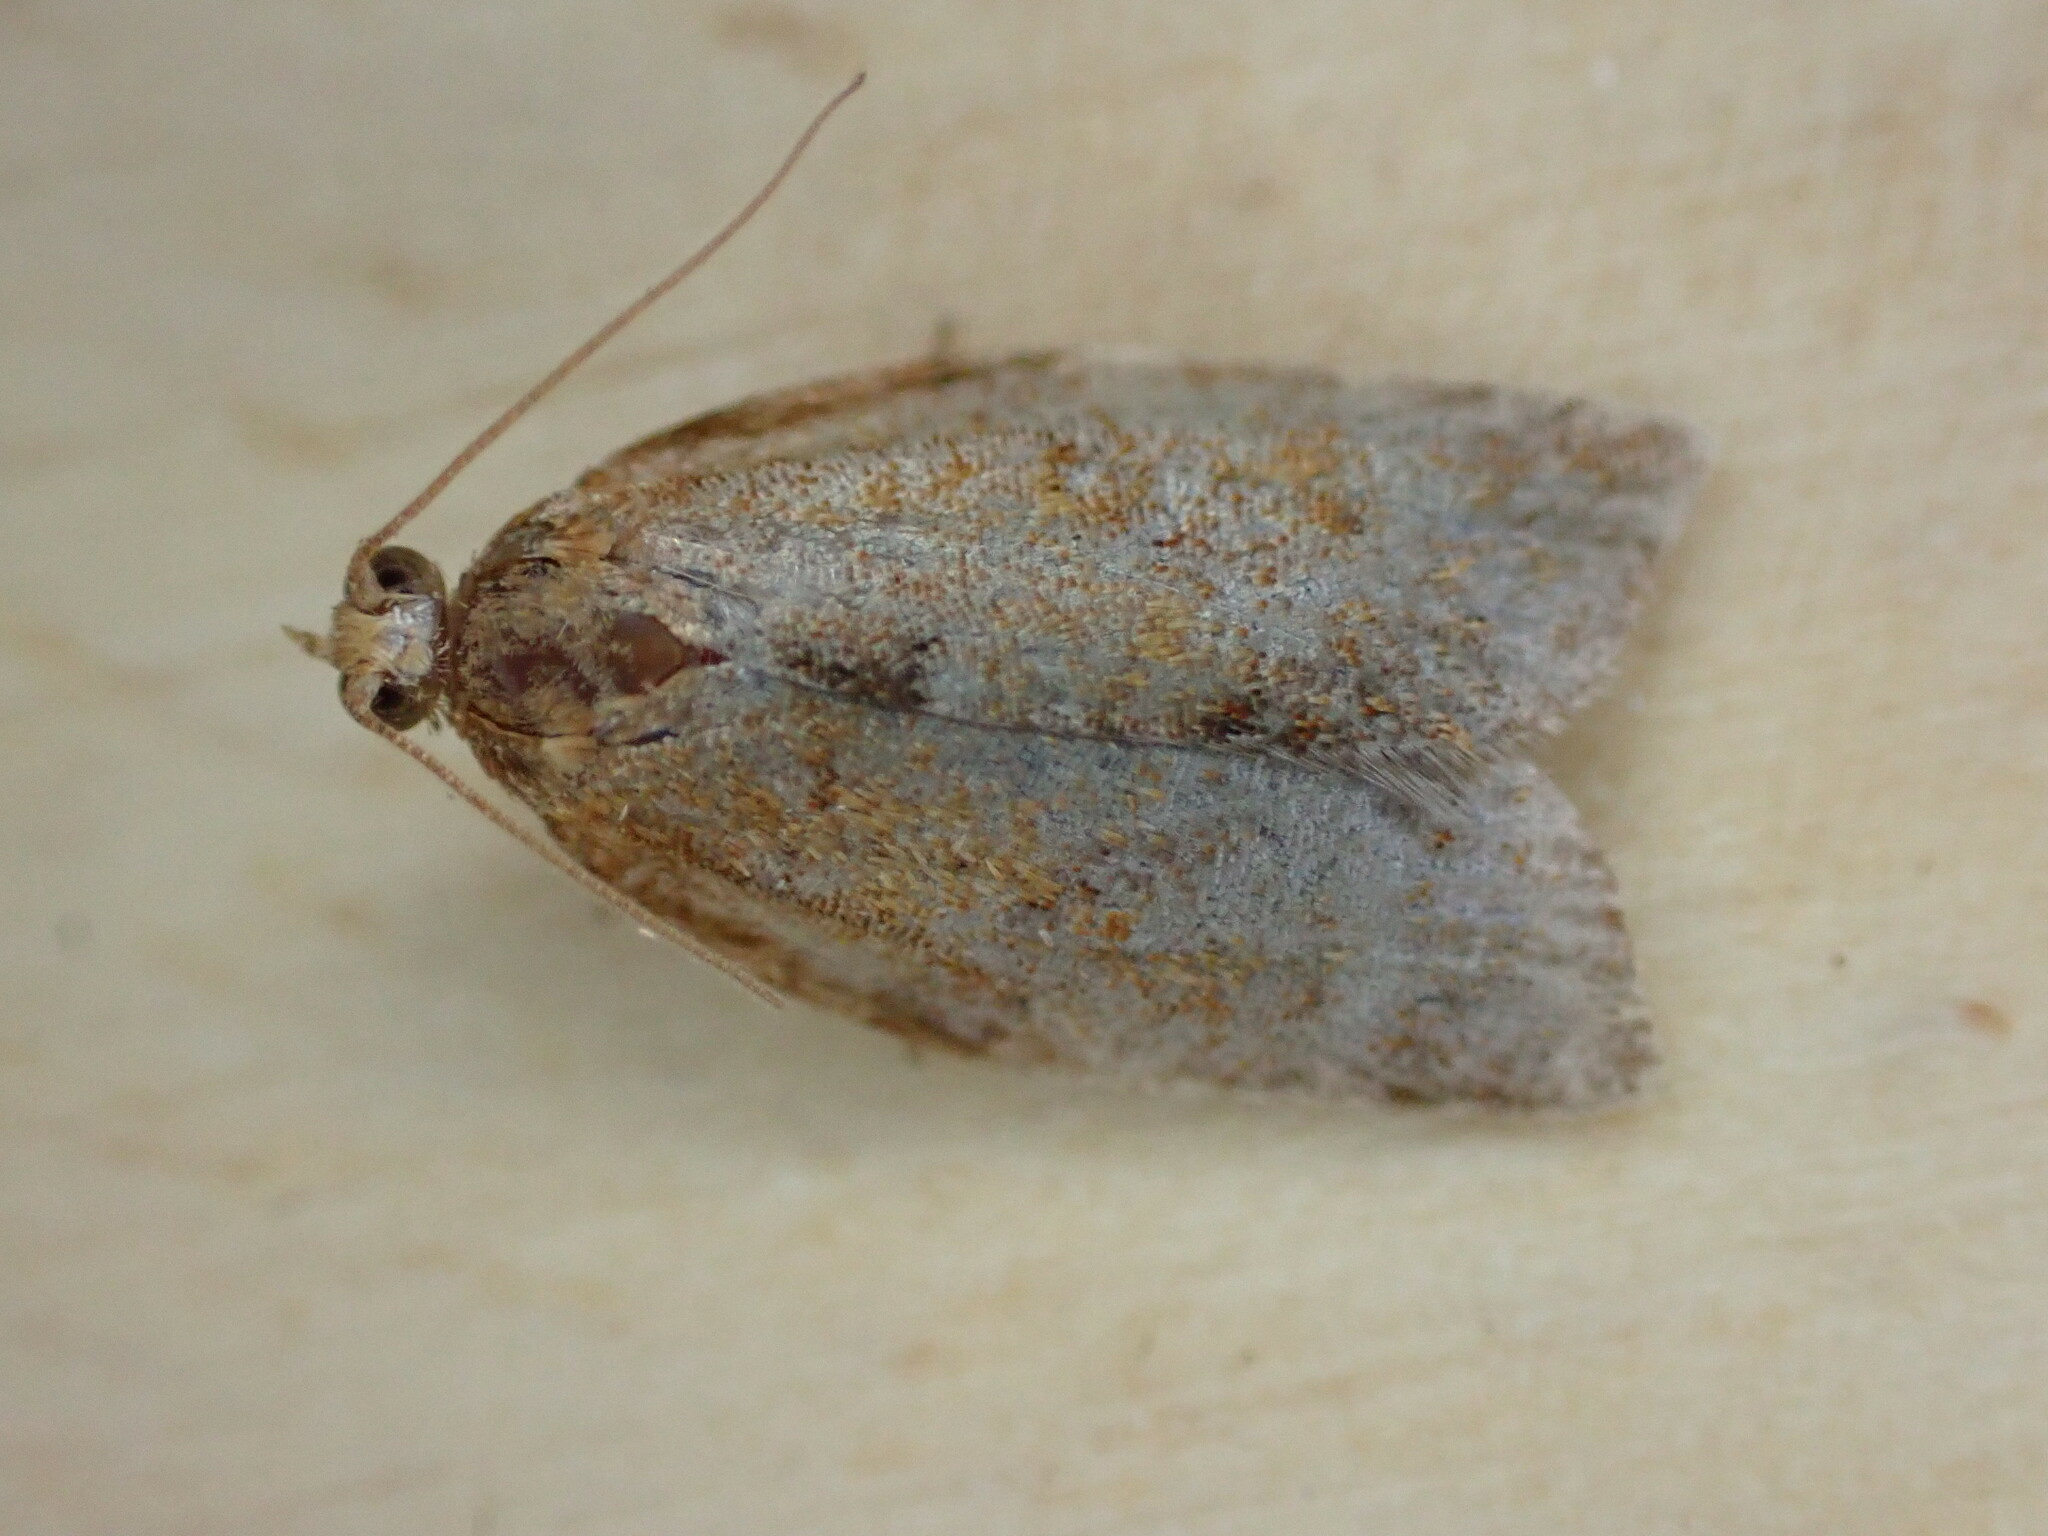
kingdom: Animalia
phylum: Arthropoda
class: Insecta
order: Lepidoptera
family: Tortricidae
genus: Clepsis
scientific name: Clepsis consimilana
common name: Privet tortrix
